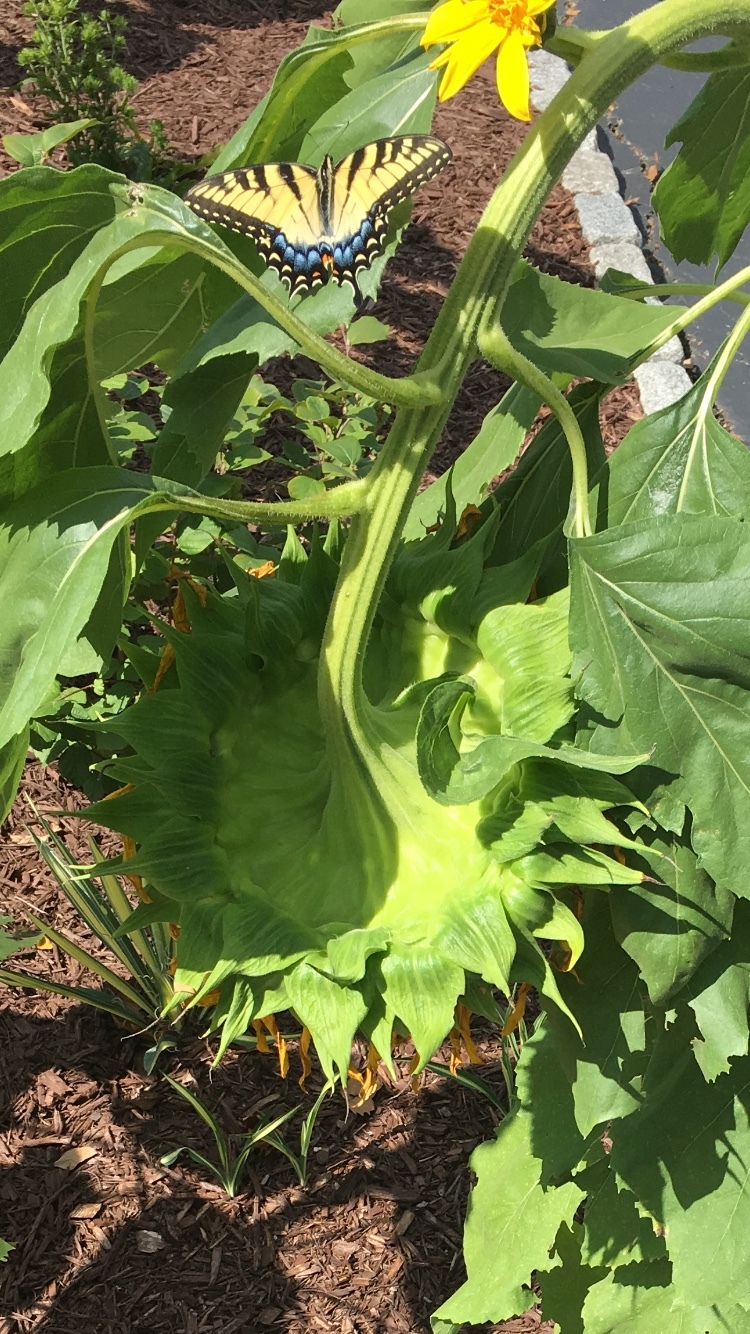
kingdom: Animalia
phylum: Arthropoda
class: Insecta
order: Lepidoptera
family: Papilionidae
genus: Papilio
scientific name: Papilio glaucus
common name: Tiger swallowtail
